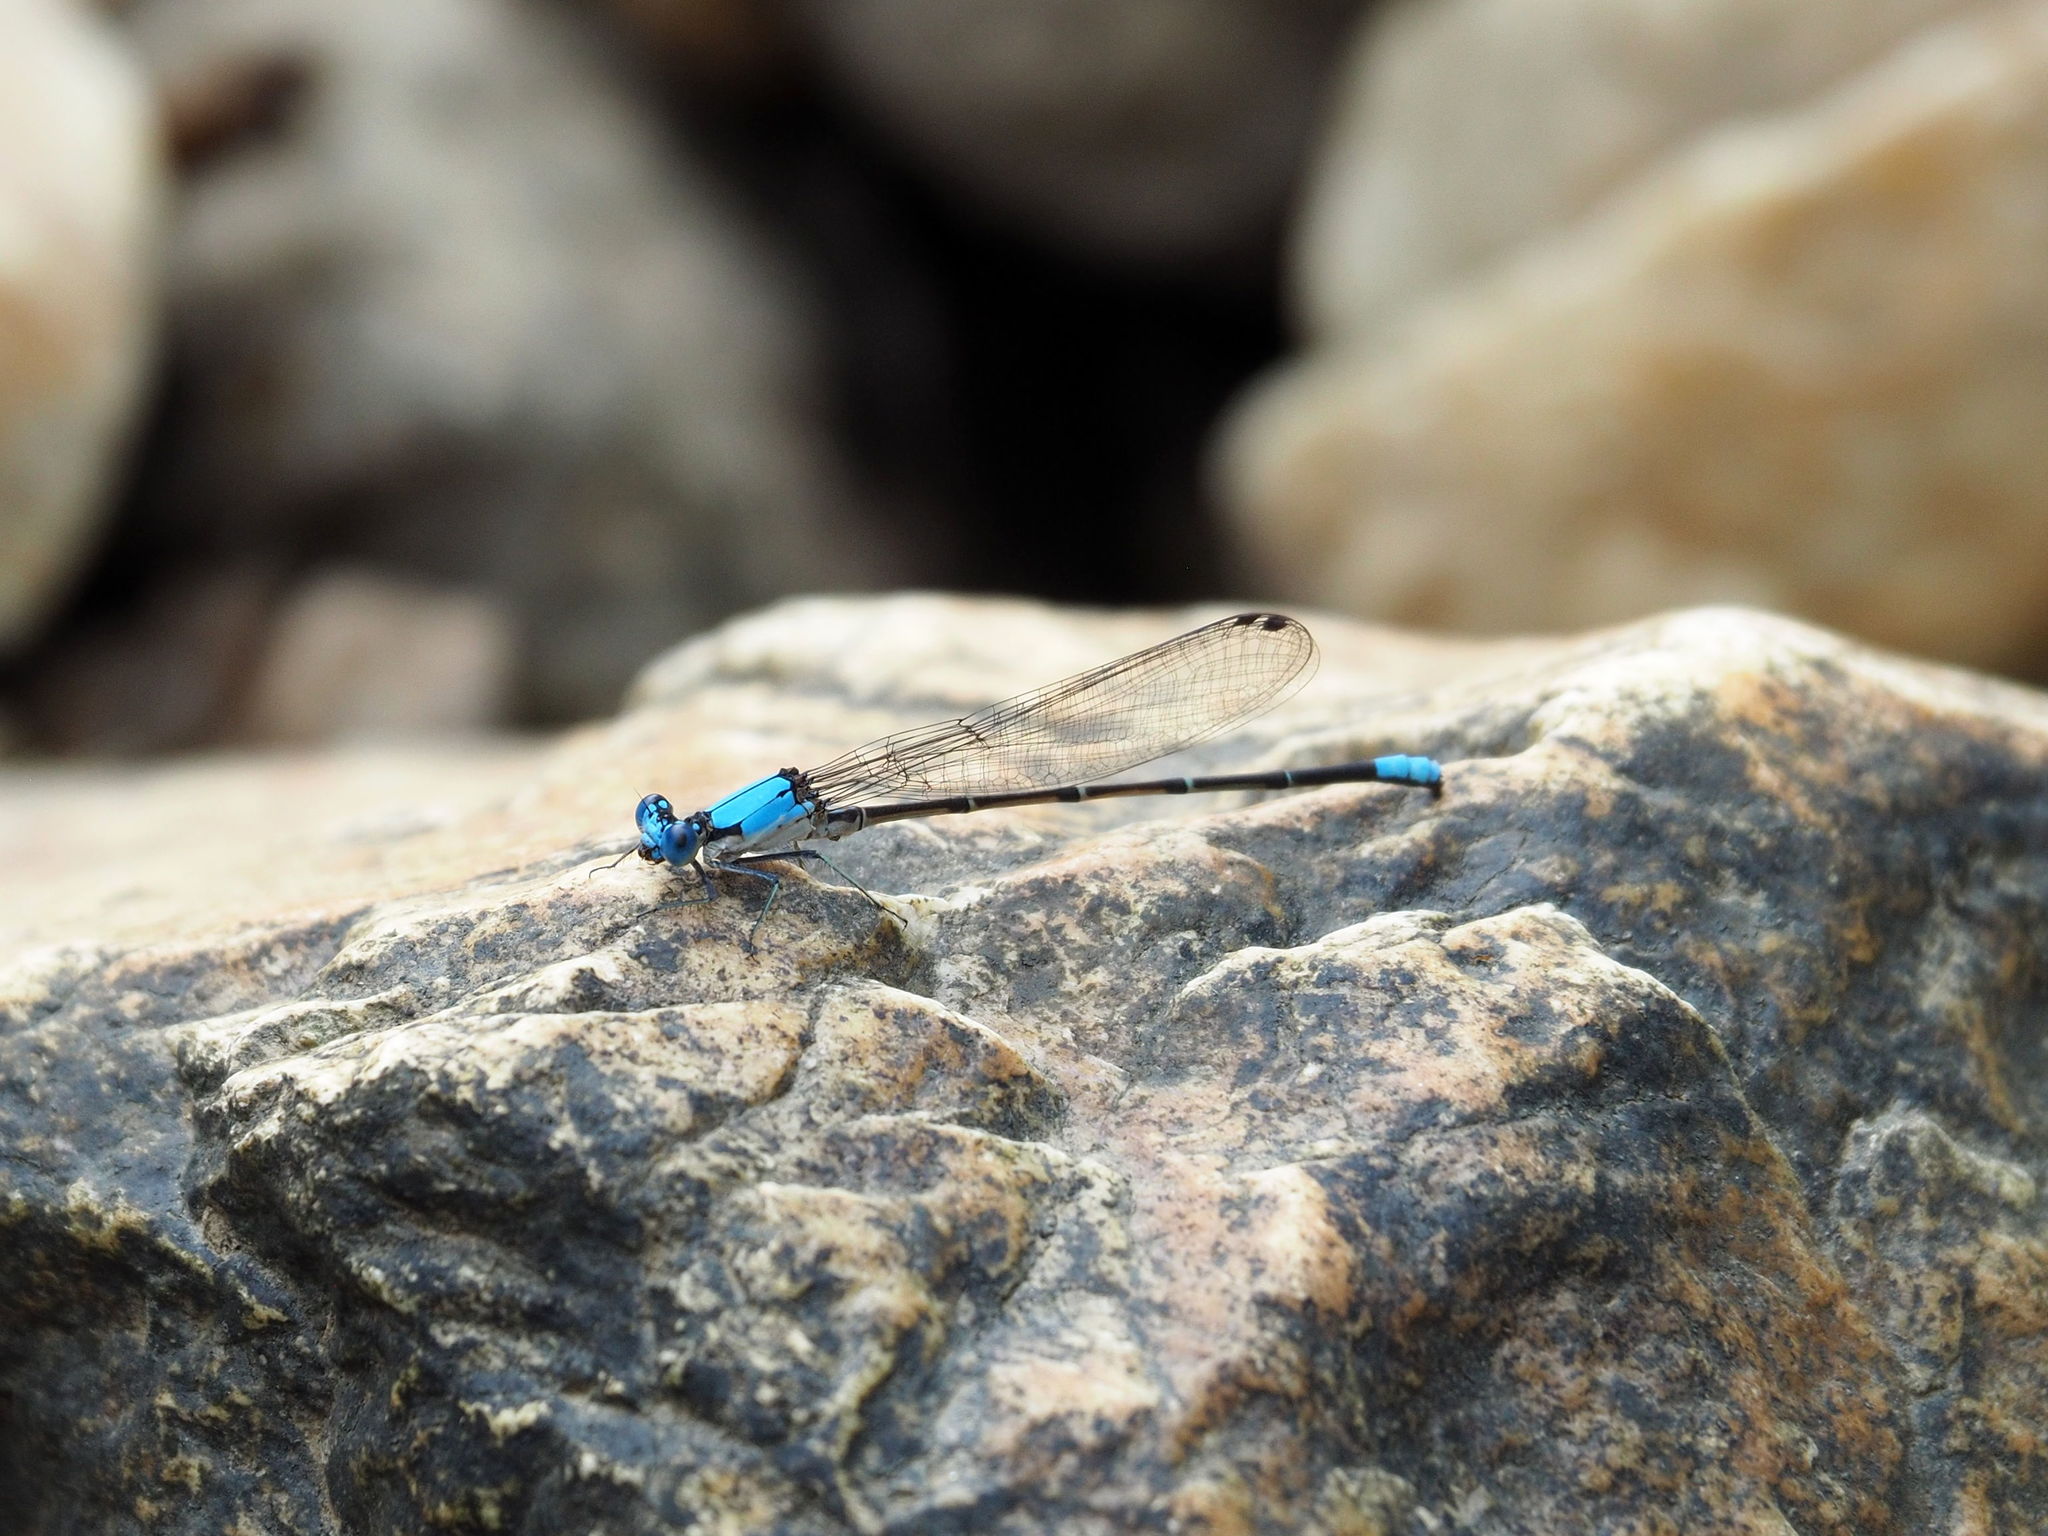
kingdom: Animalia
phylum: Arthropoda
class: Insecta
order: Odonata
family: Coenagrionidae
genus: Argia
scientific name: Argia apicalis
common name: Blue-fronted dancer
